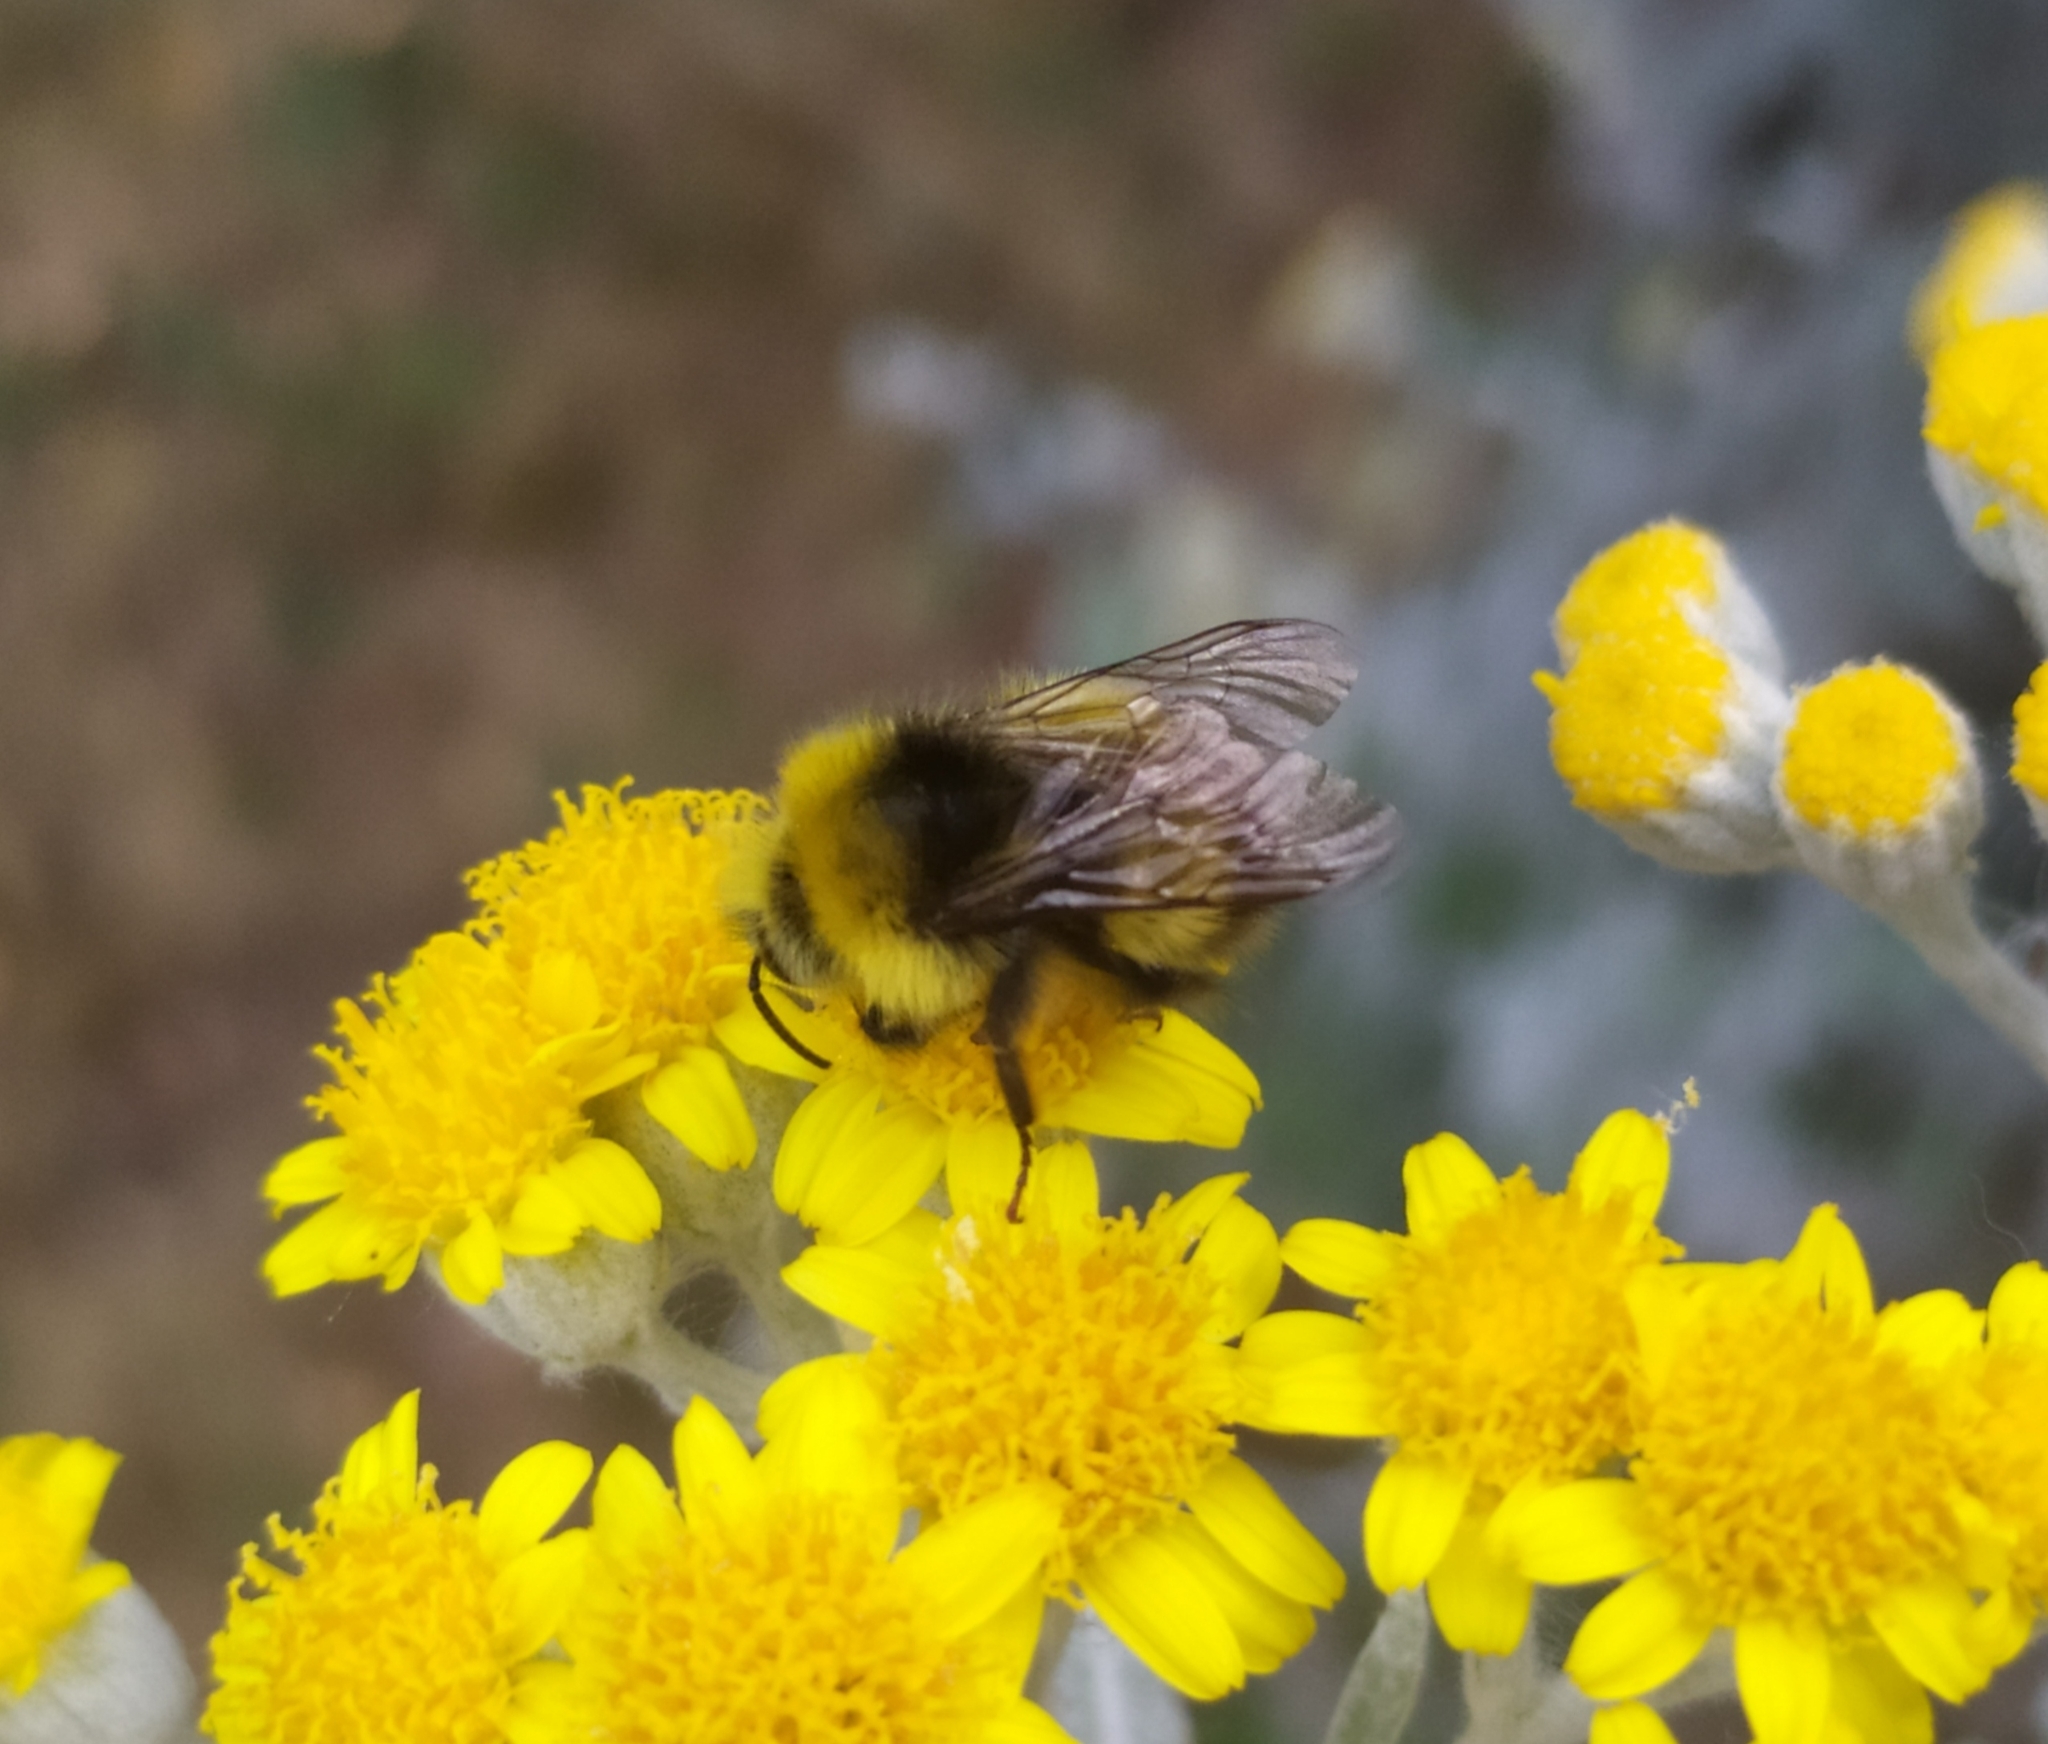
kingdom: Animalia
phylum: Arthropoda
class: Insecta
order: Hymenoptera
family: Apidae
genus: Bombus
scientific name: Bombus pratorum
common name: Early humble-bee
